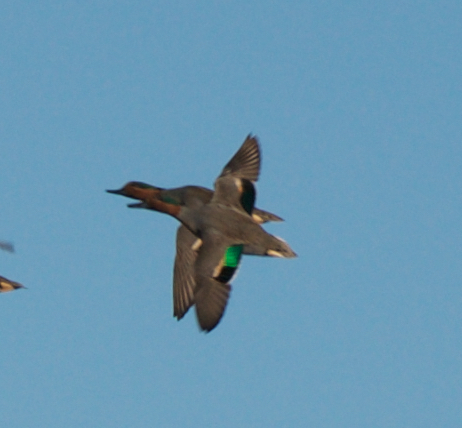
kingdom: Animalia
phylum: Chordata
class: Aves
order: Anseriformes
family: Anatidae
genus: Anas
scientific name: Anas crecca
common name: Eurasian teal
